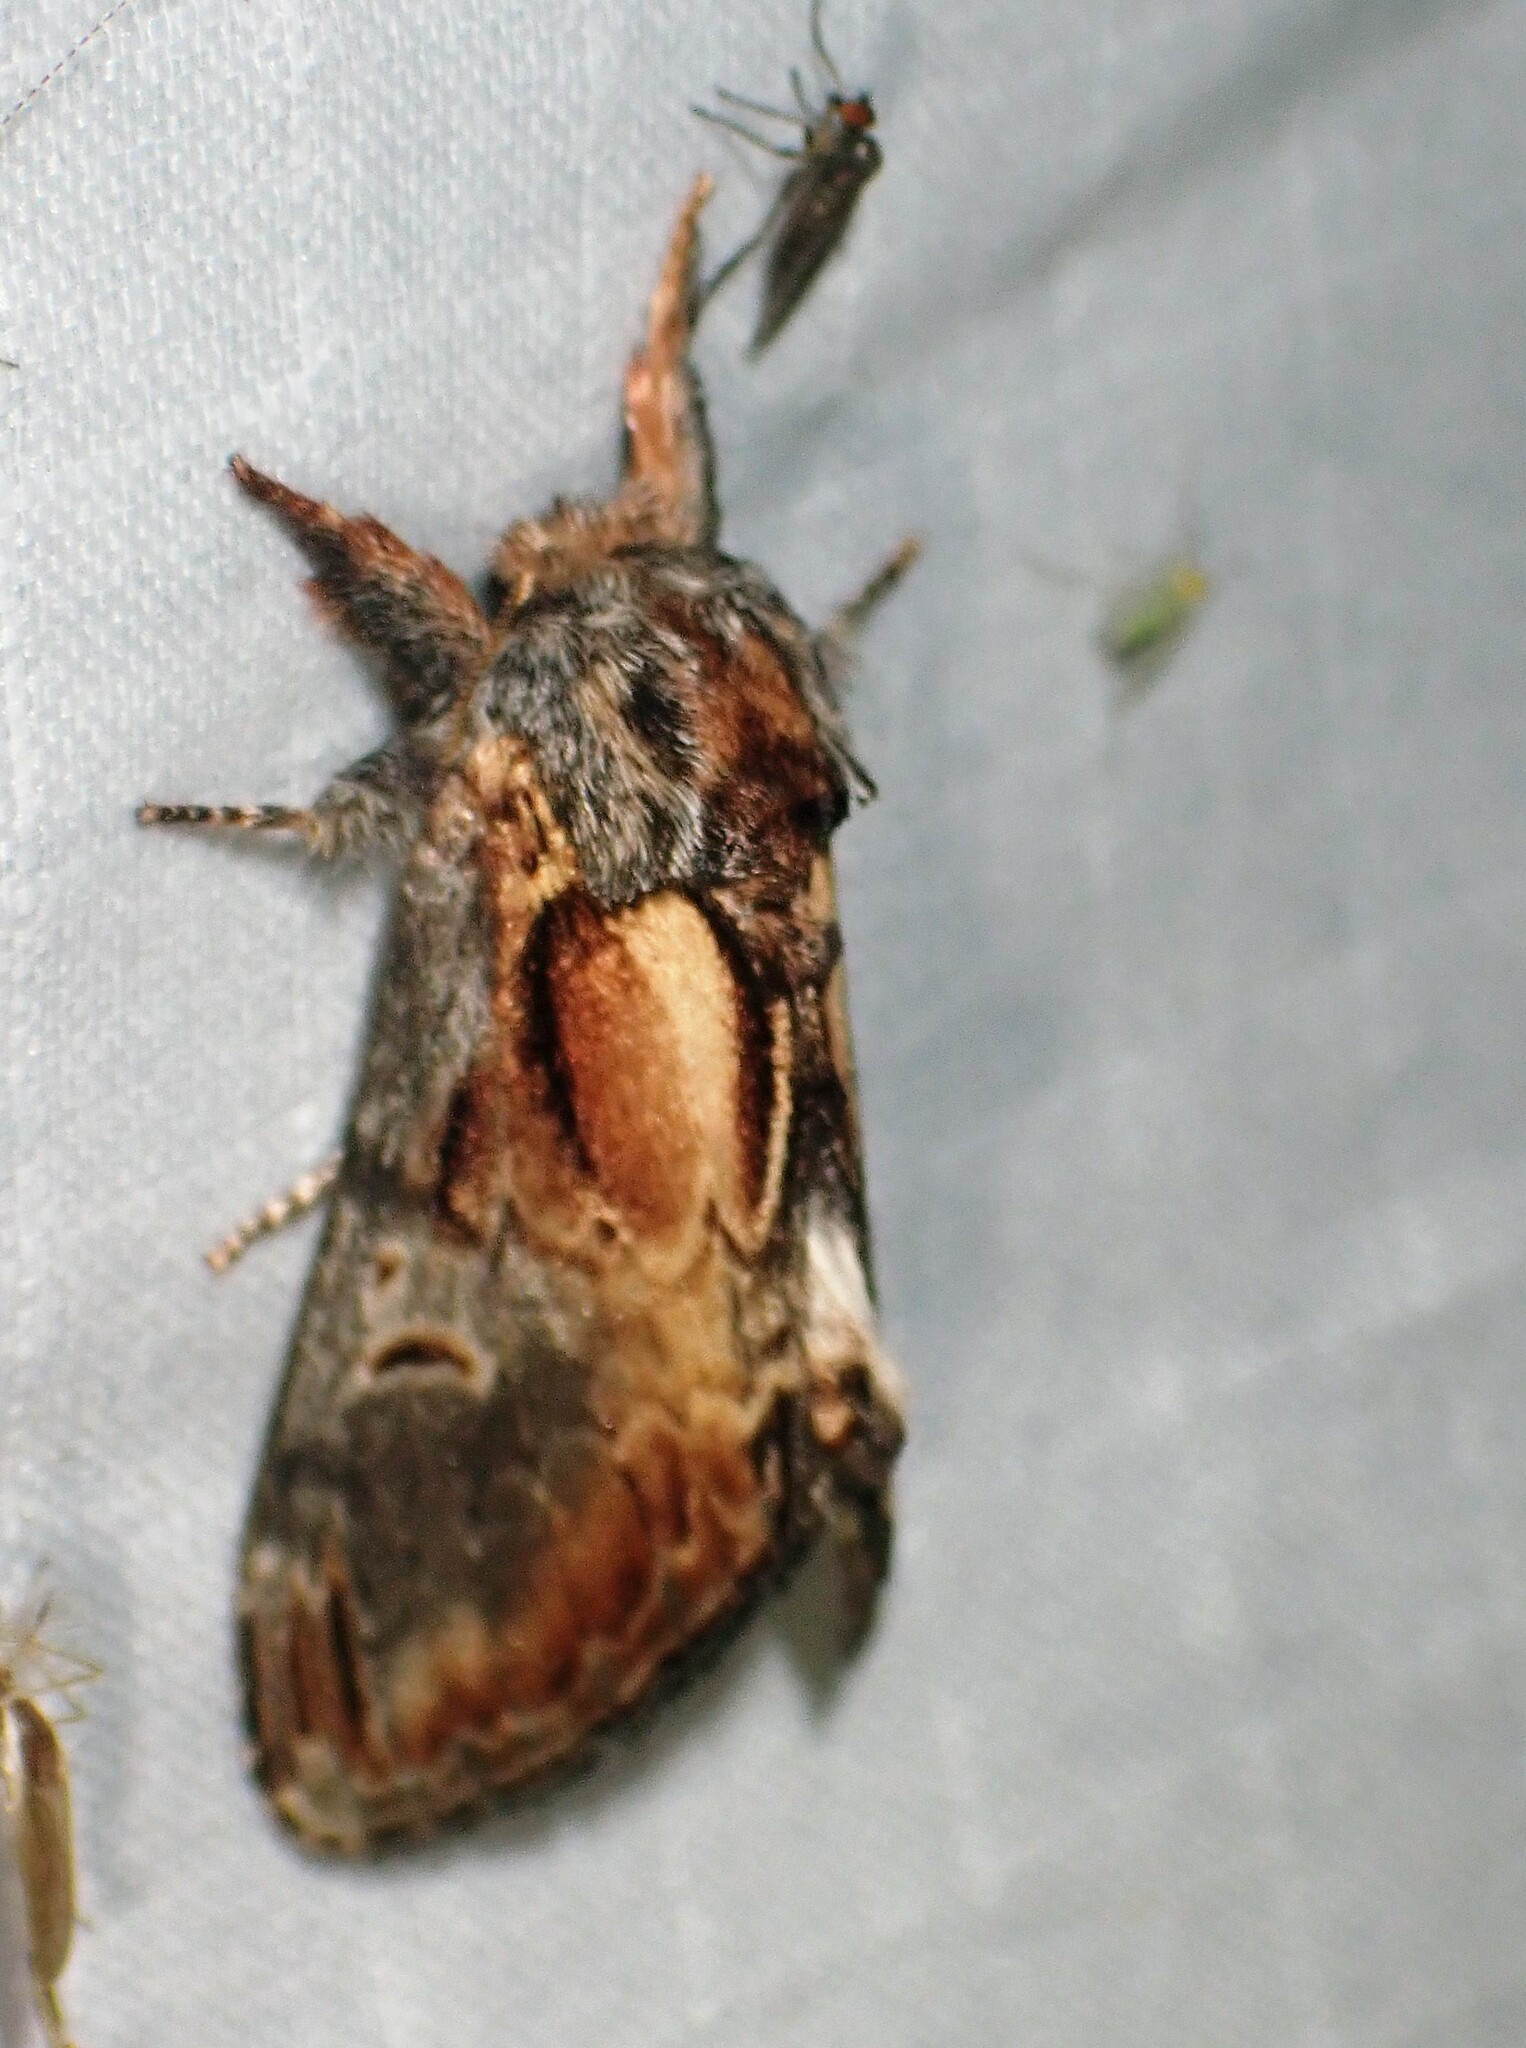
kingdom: Animalia
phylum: Arthropoda
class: Insecta
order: Lepidoptera
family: Notodontidae
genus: Notodonta
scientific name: Notodonta scitipennis
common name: Finned-willow prominent moth
